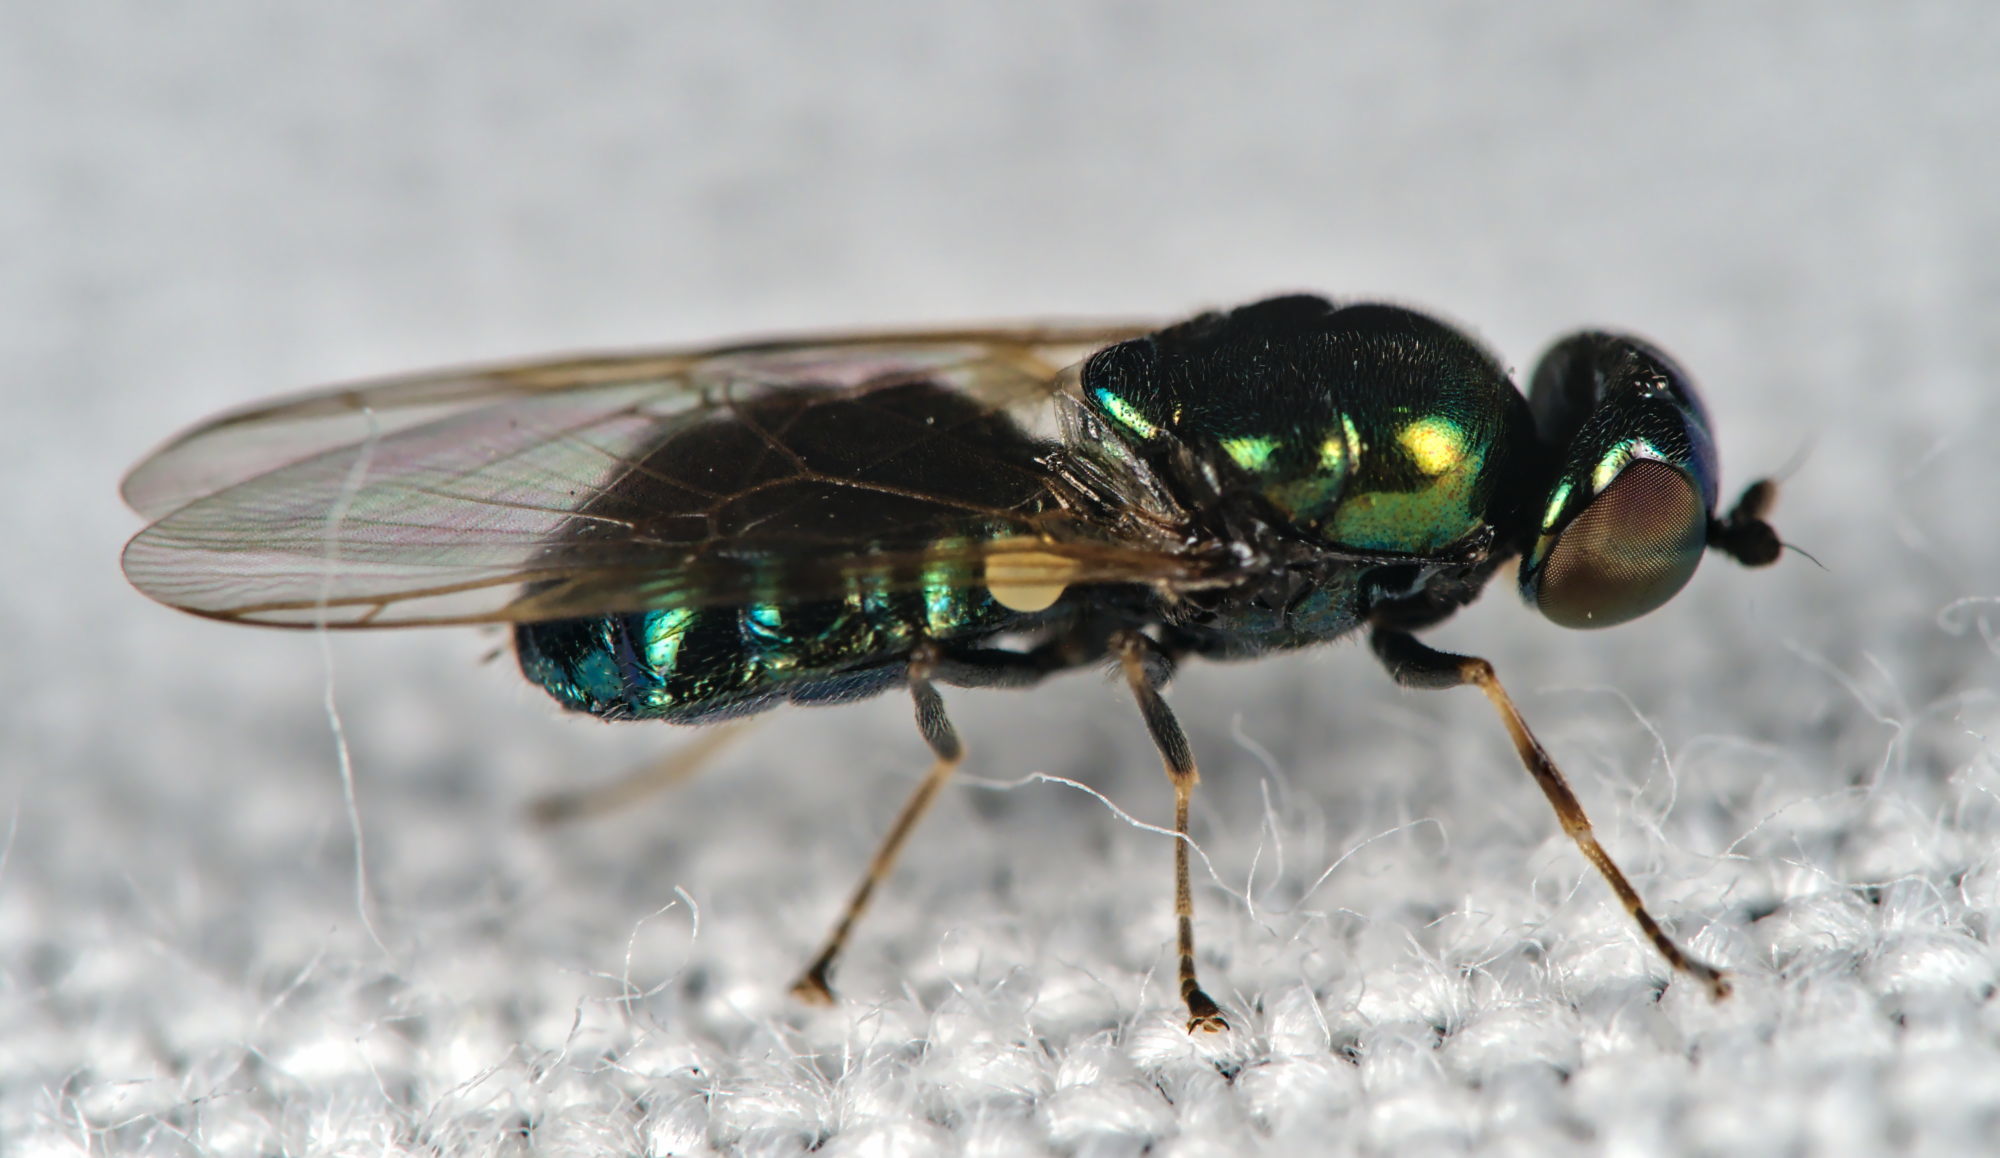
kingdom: Animalia
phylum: Arthropoda
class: Insecta
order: Diptera
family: Stratiomyidae
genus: Microchrysa
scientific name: Microchrysa polita
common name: Black-horned gem
